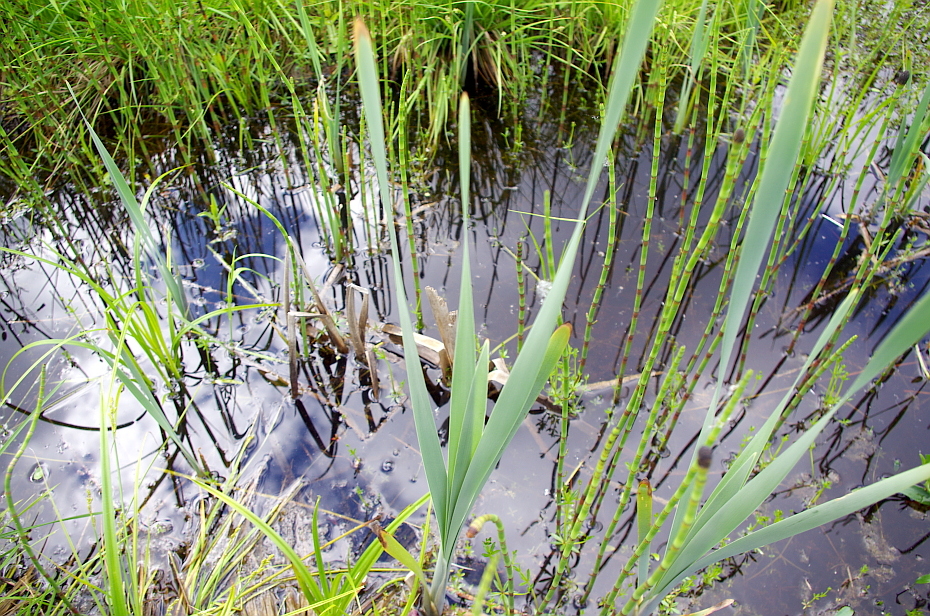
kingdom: Plantae
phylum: Tracheophyta
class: Polypodiopsida
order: Equisetales
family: Equisetaceae
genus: Equisetum
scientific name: Equisetum fluviatile
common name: Water horsetail
